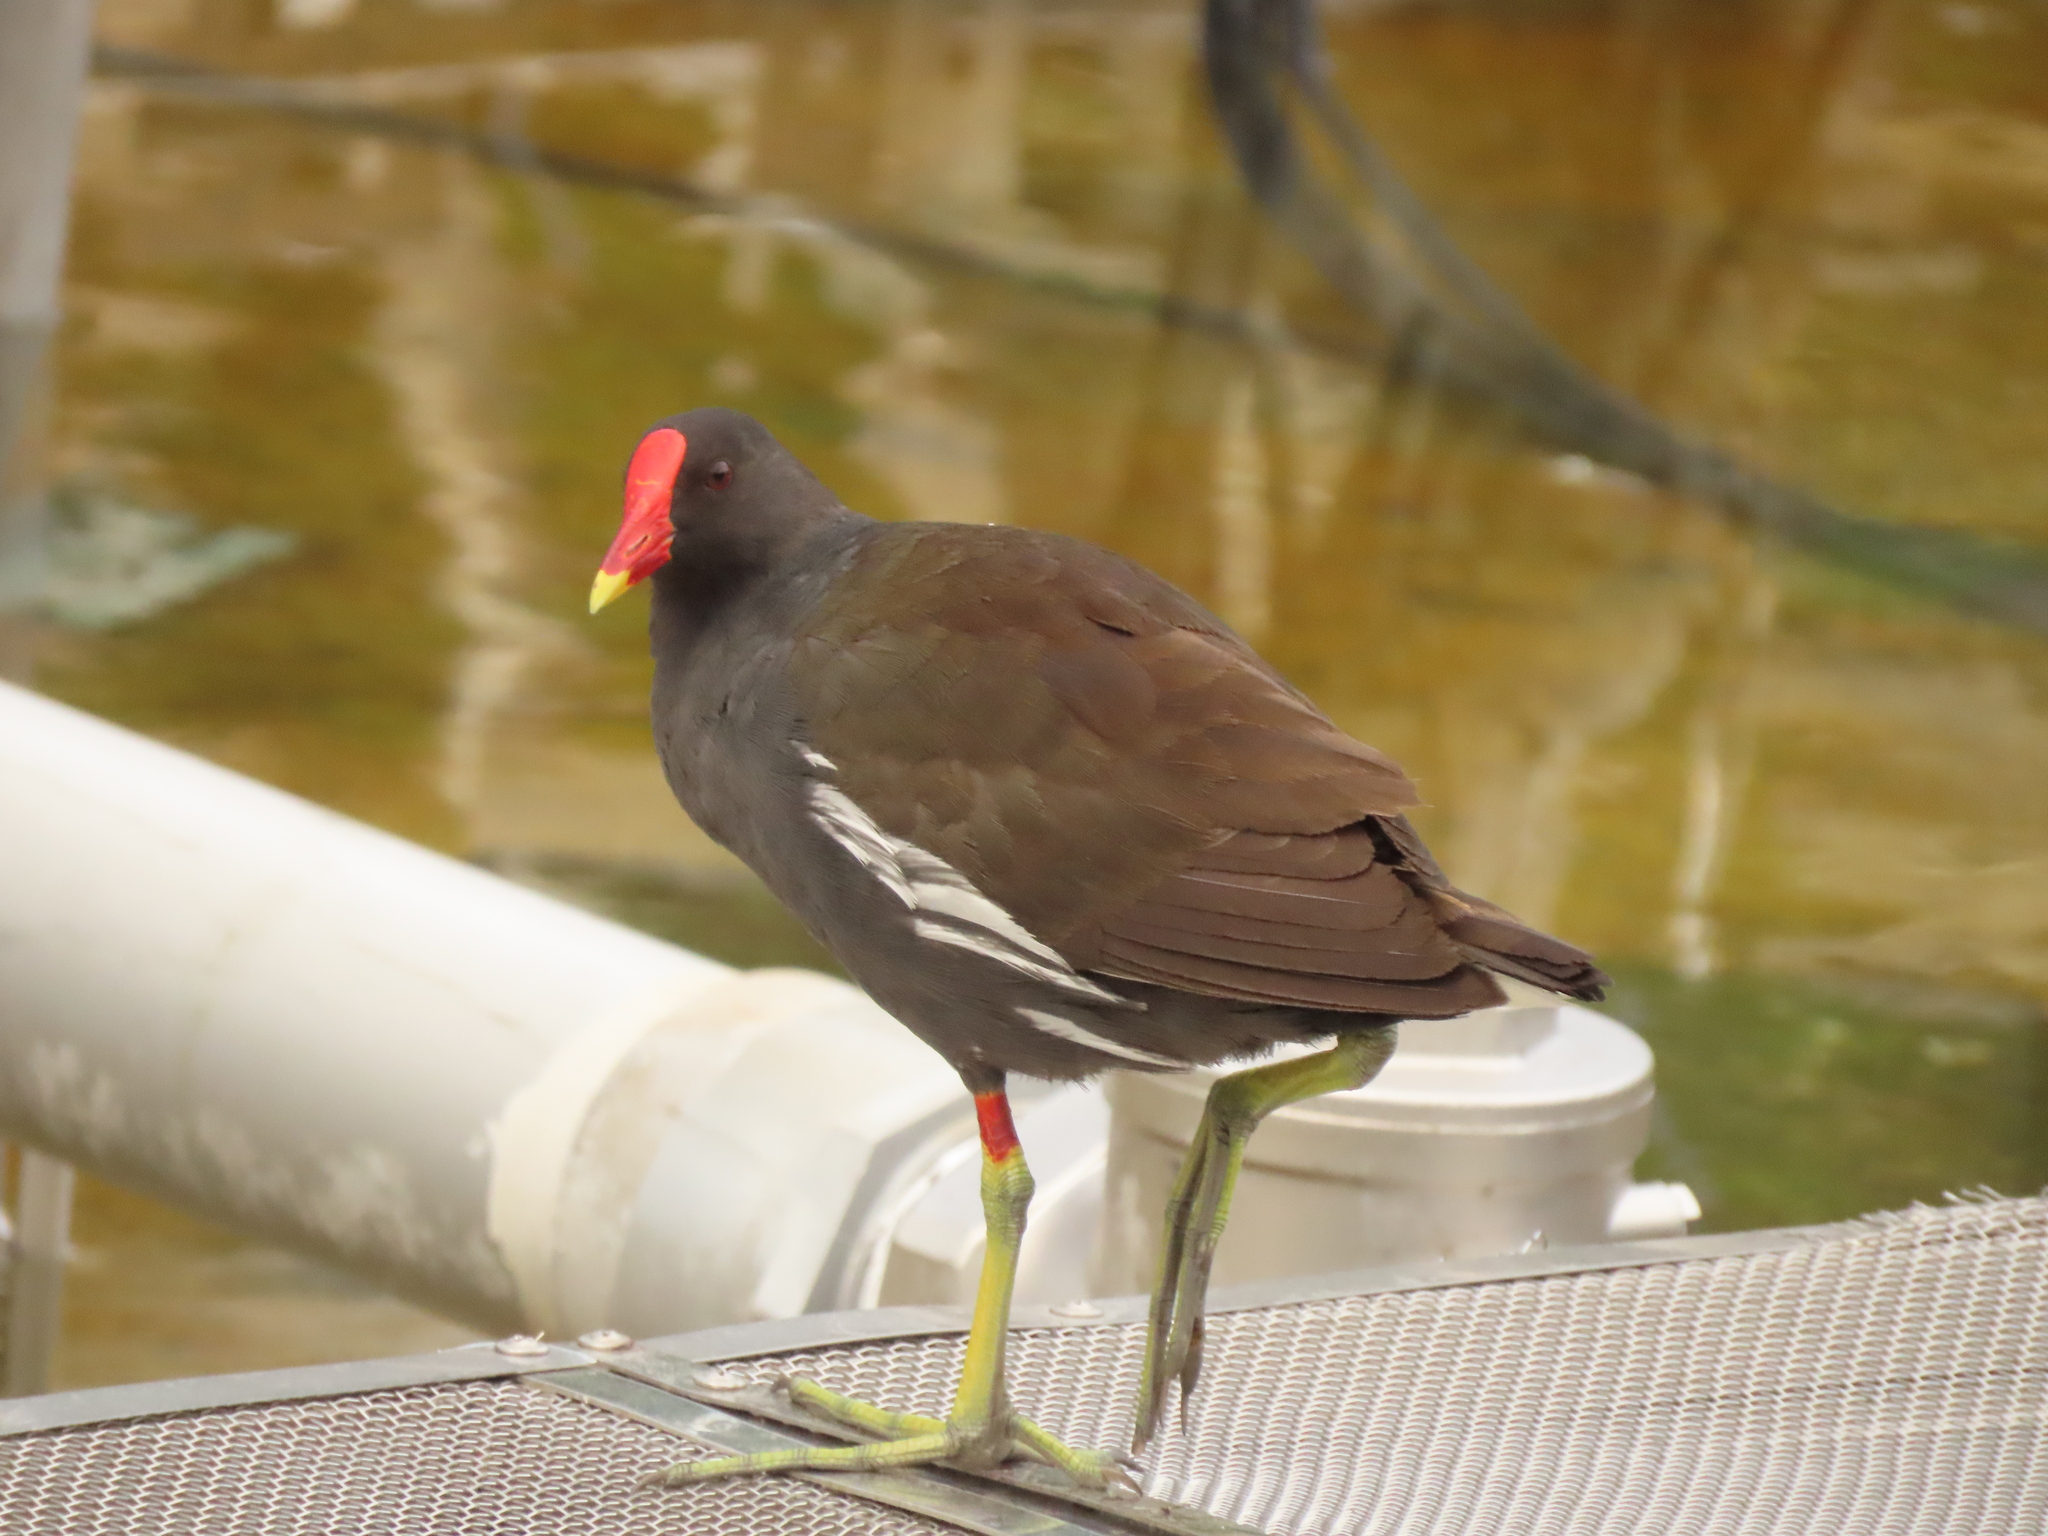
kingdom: Animalia
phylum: Chordata
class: Aves
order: Gruiformes
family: Rallidae
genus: Gallinula
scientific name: Gallinula chloropus
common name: Common moorhen
